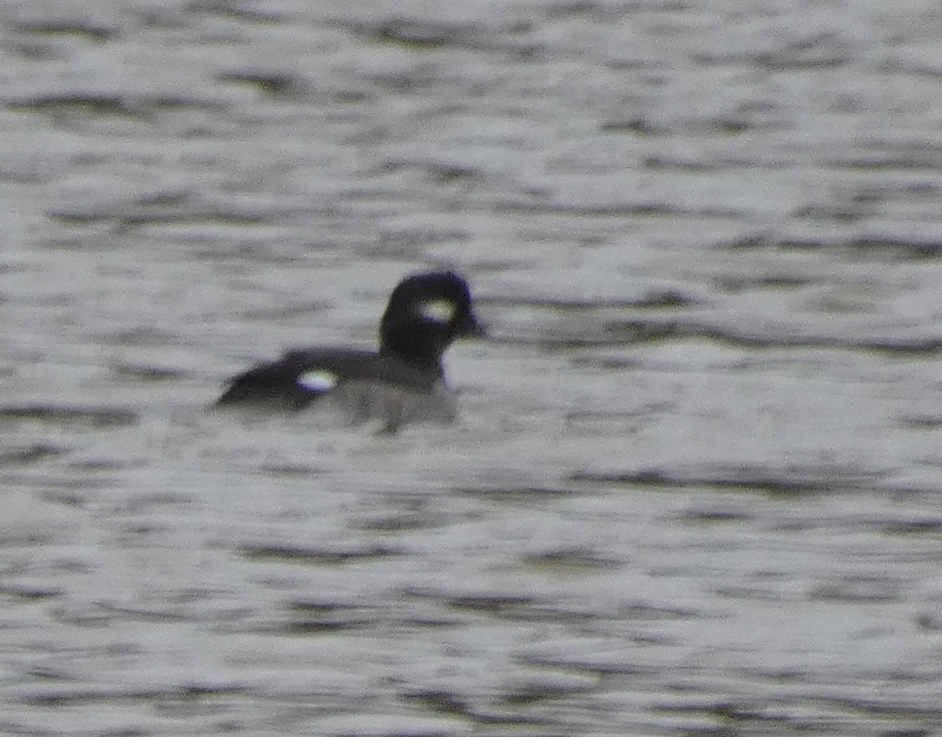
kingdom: Animalia
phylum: Chordata
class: Aves
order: Anseriformes
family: Anatidae
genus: Bucephala
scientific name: Bucephala albeola
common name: Bufflehead
